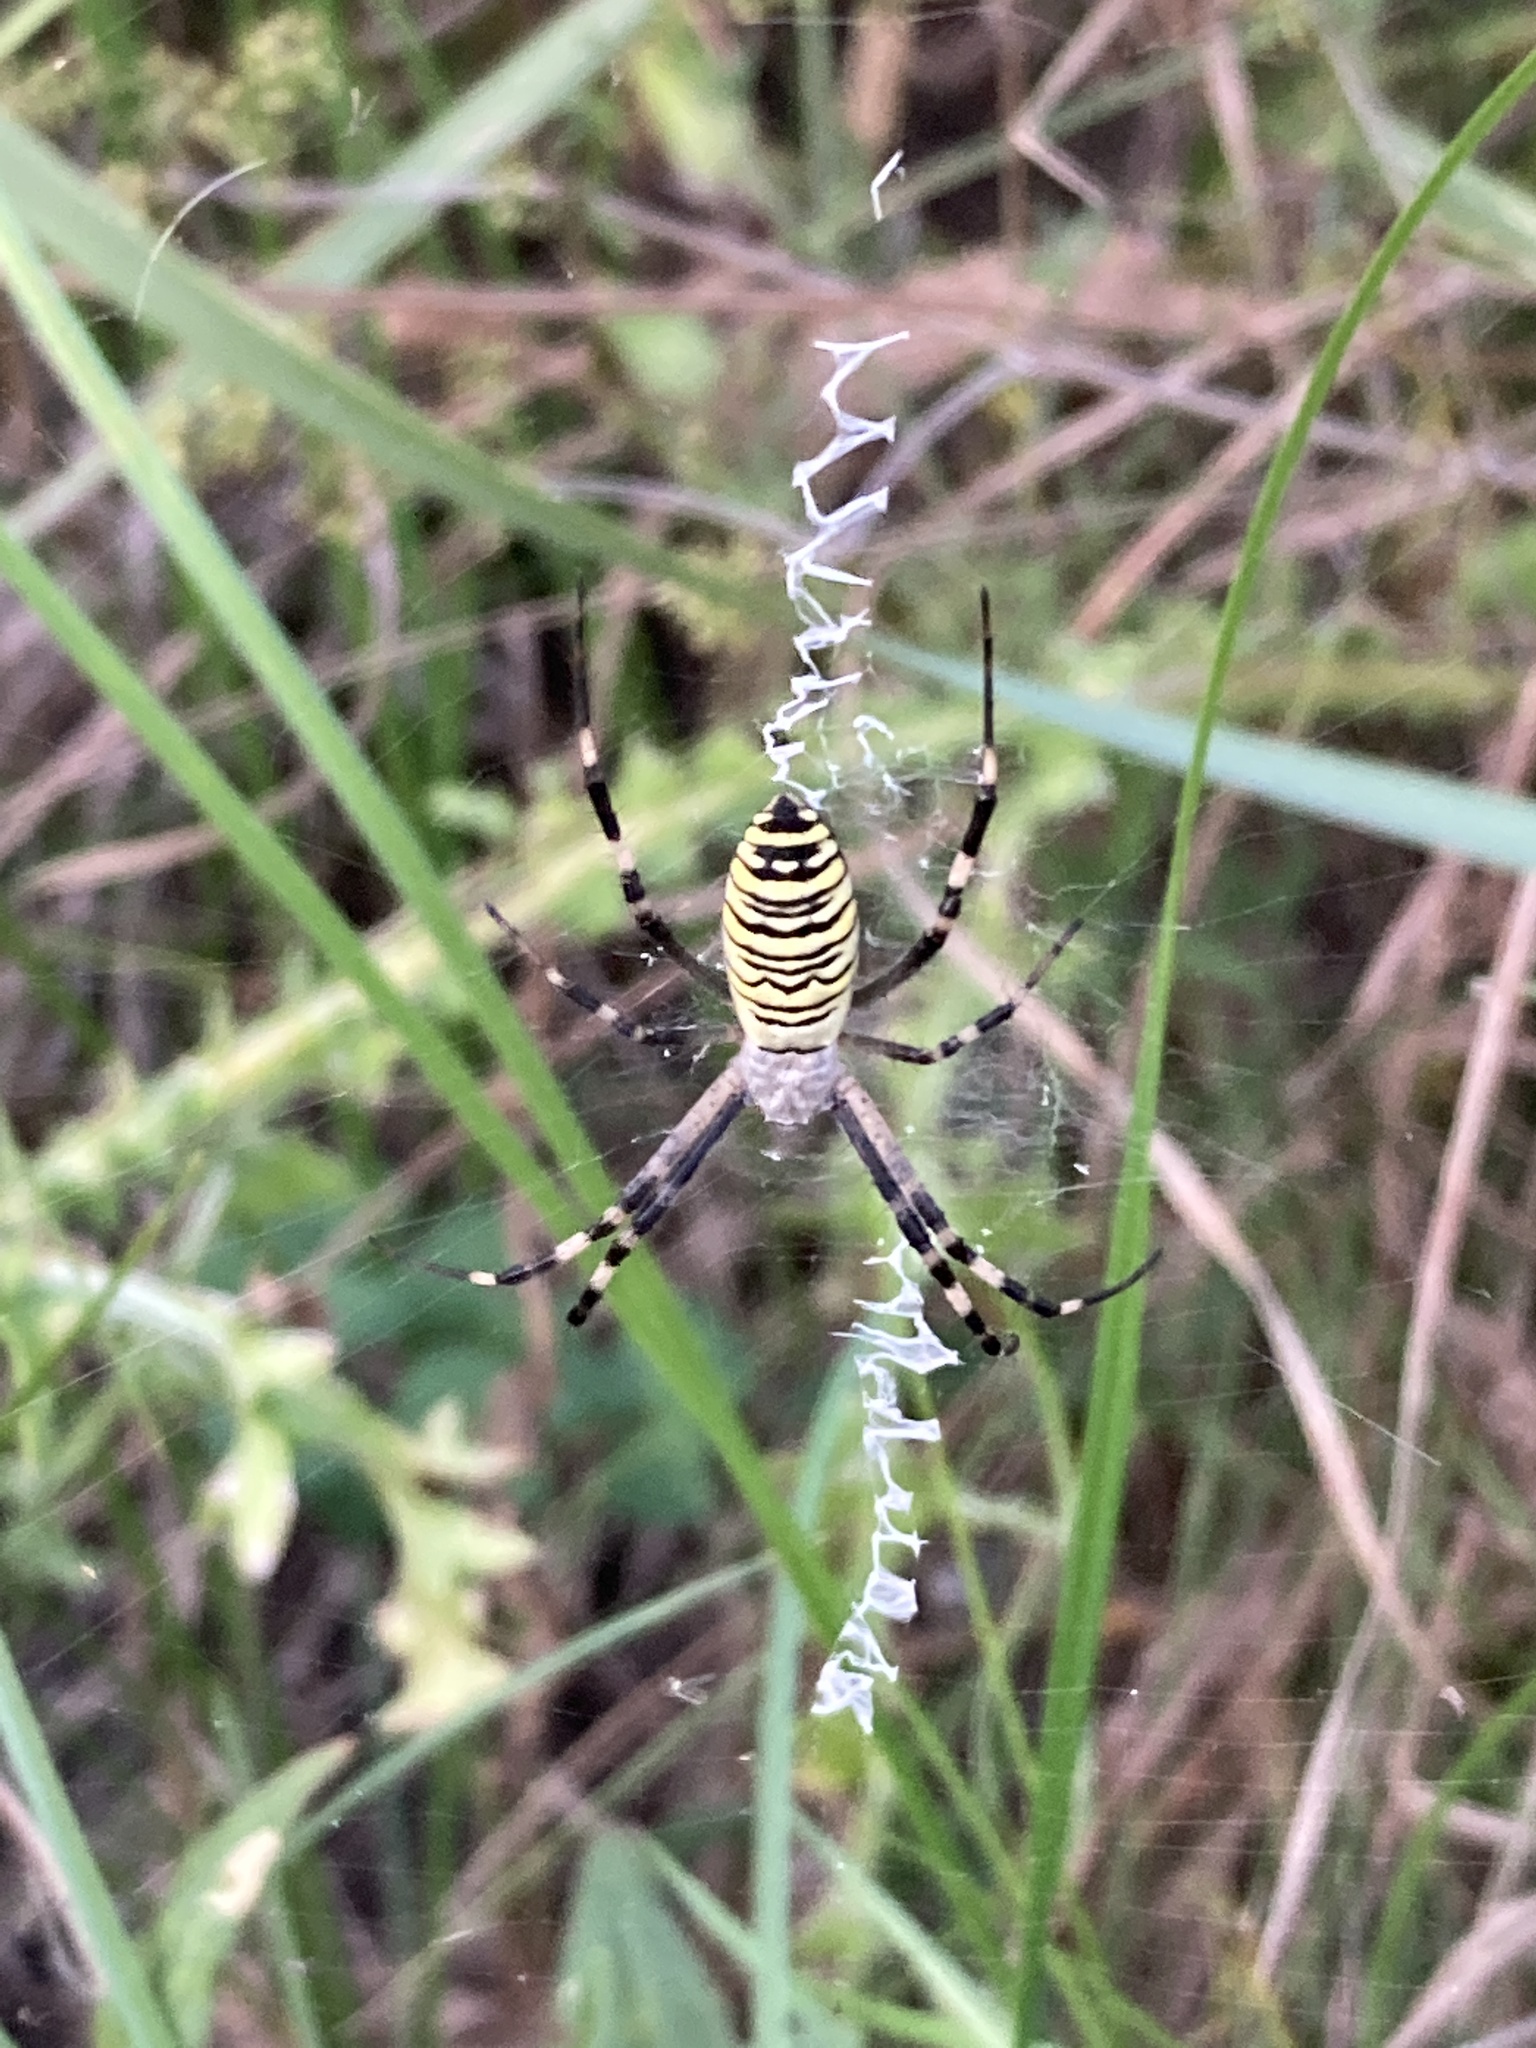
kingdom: Animalia
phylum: Arthropoda
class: Arachnida
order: Araneae
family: Araneidae
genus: Argiope
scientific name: Argiope bruennichi
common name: Wasp spider
